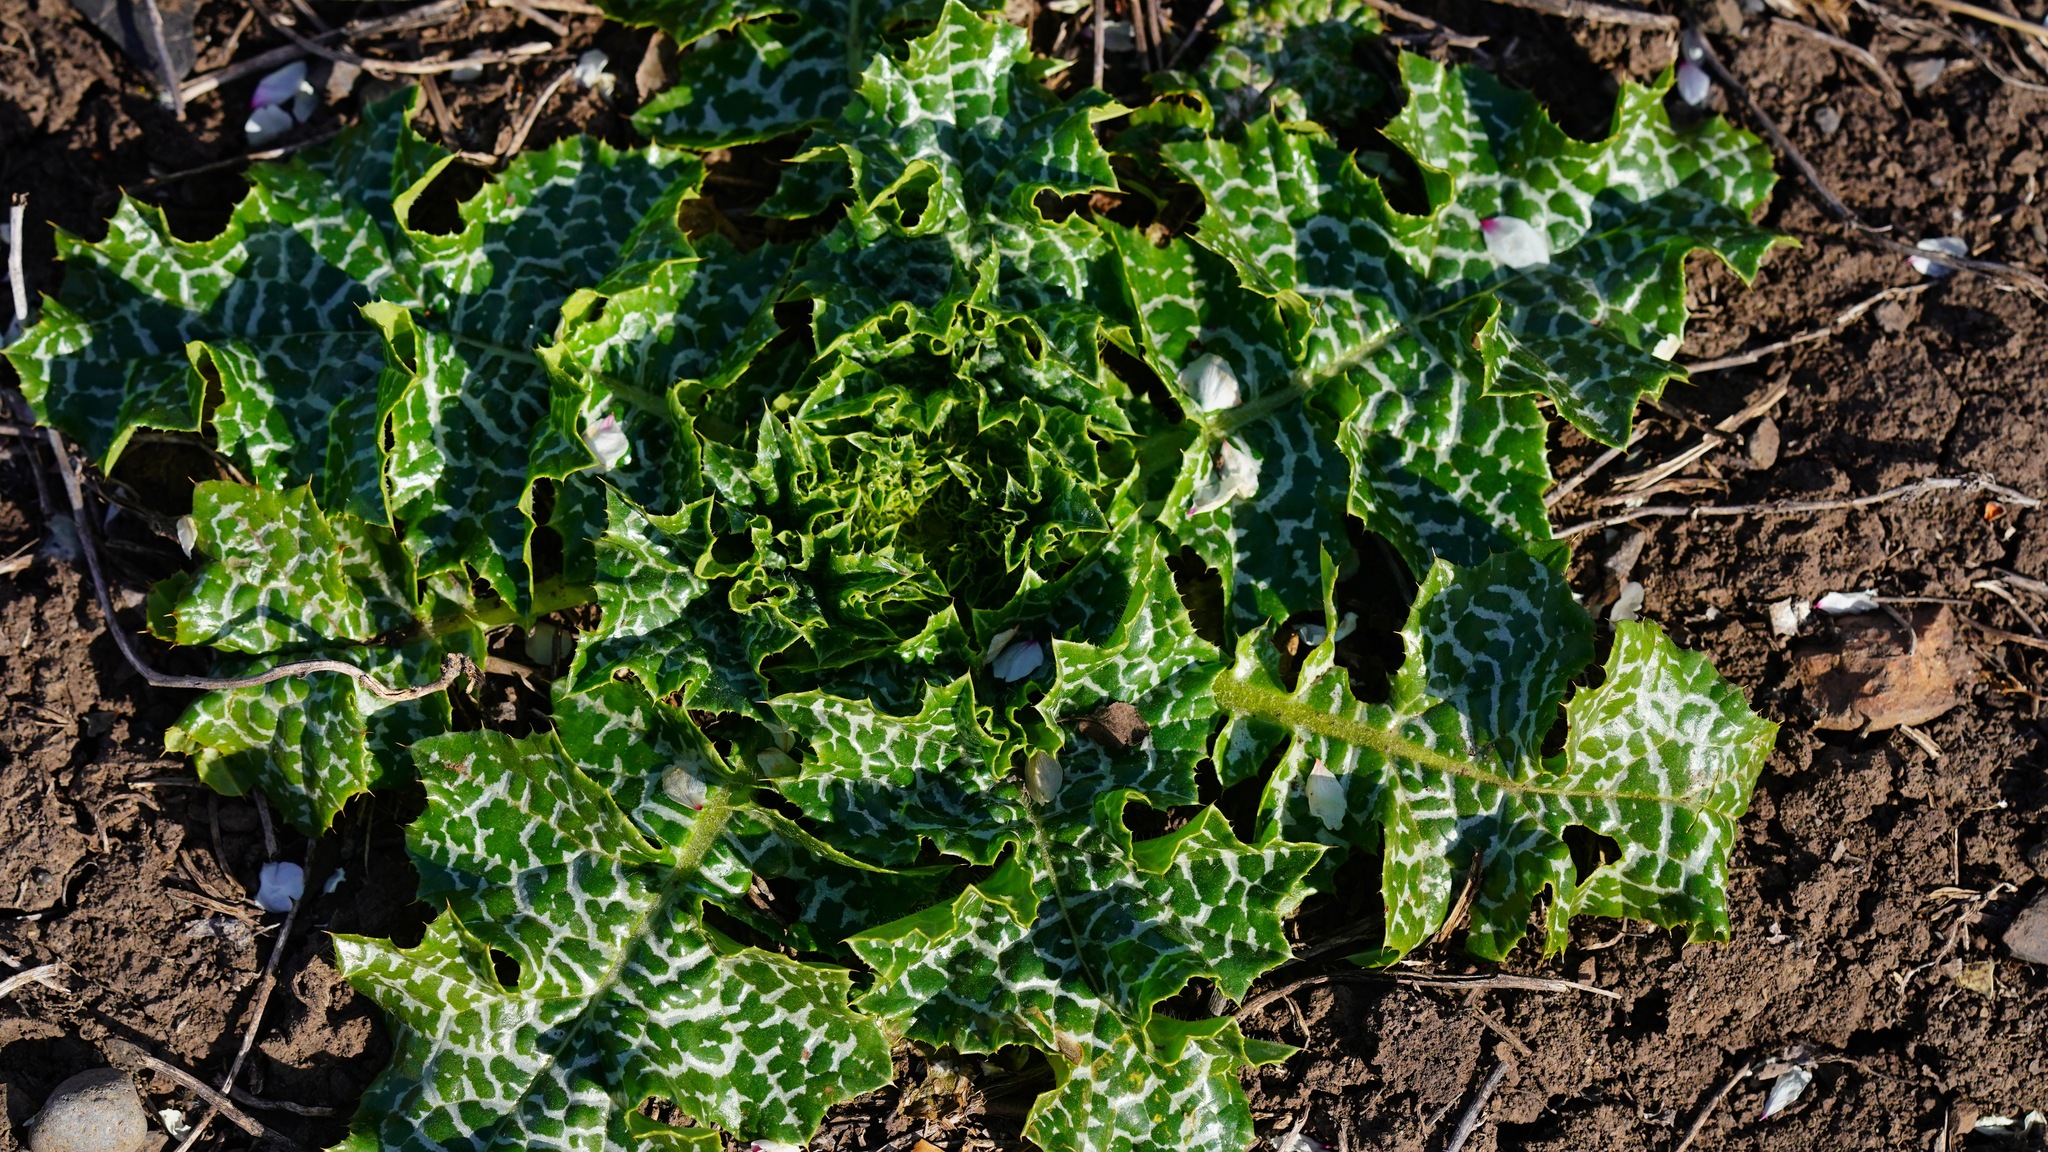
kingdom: Plantae
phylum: Tracheophyta
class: Magnoliopsida
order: Asterales
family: Asteraceae
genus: Silybum
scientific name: Silybum marianum
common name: Milk thistle
